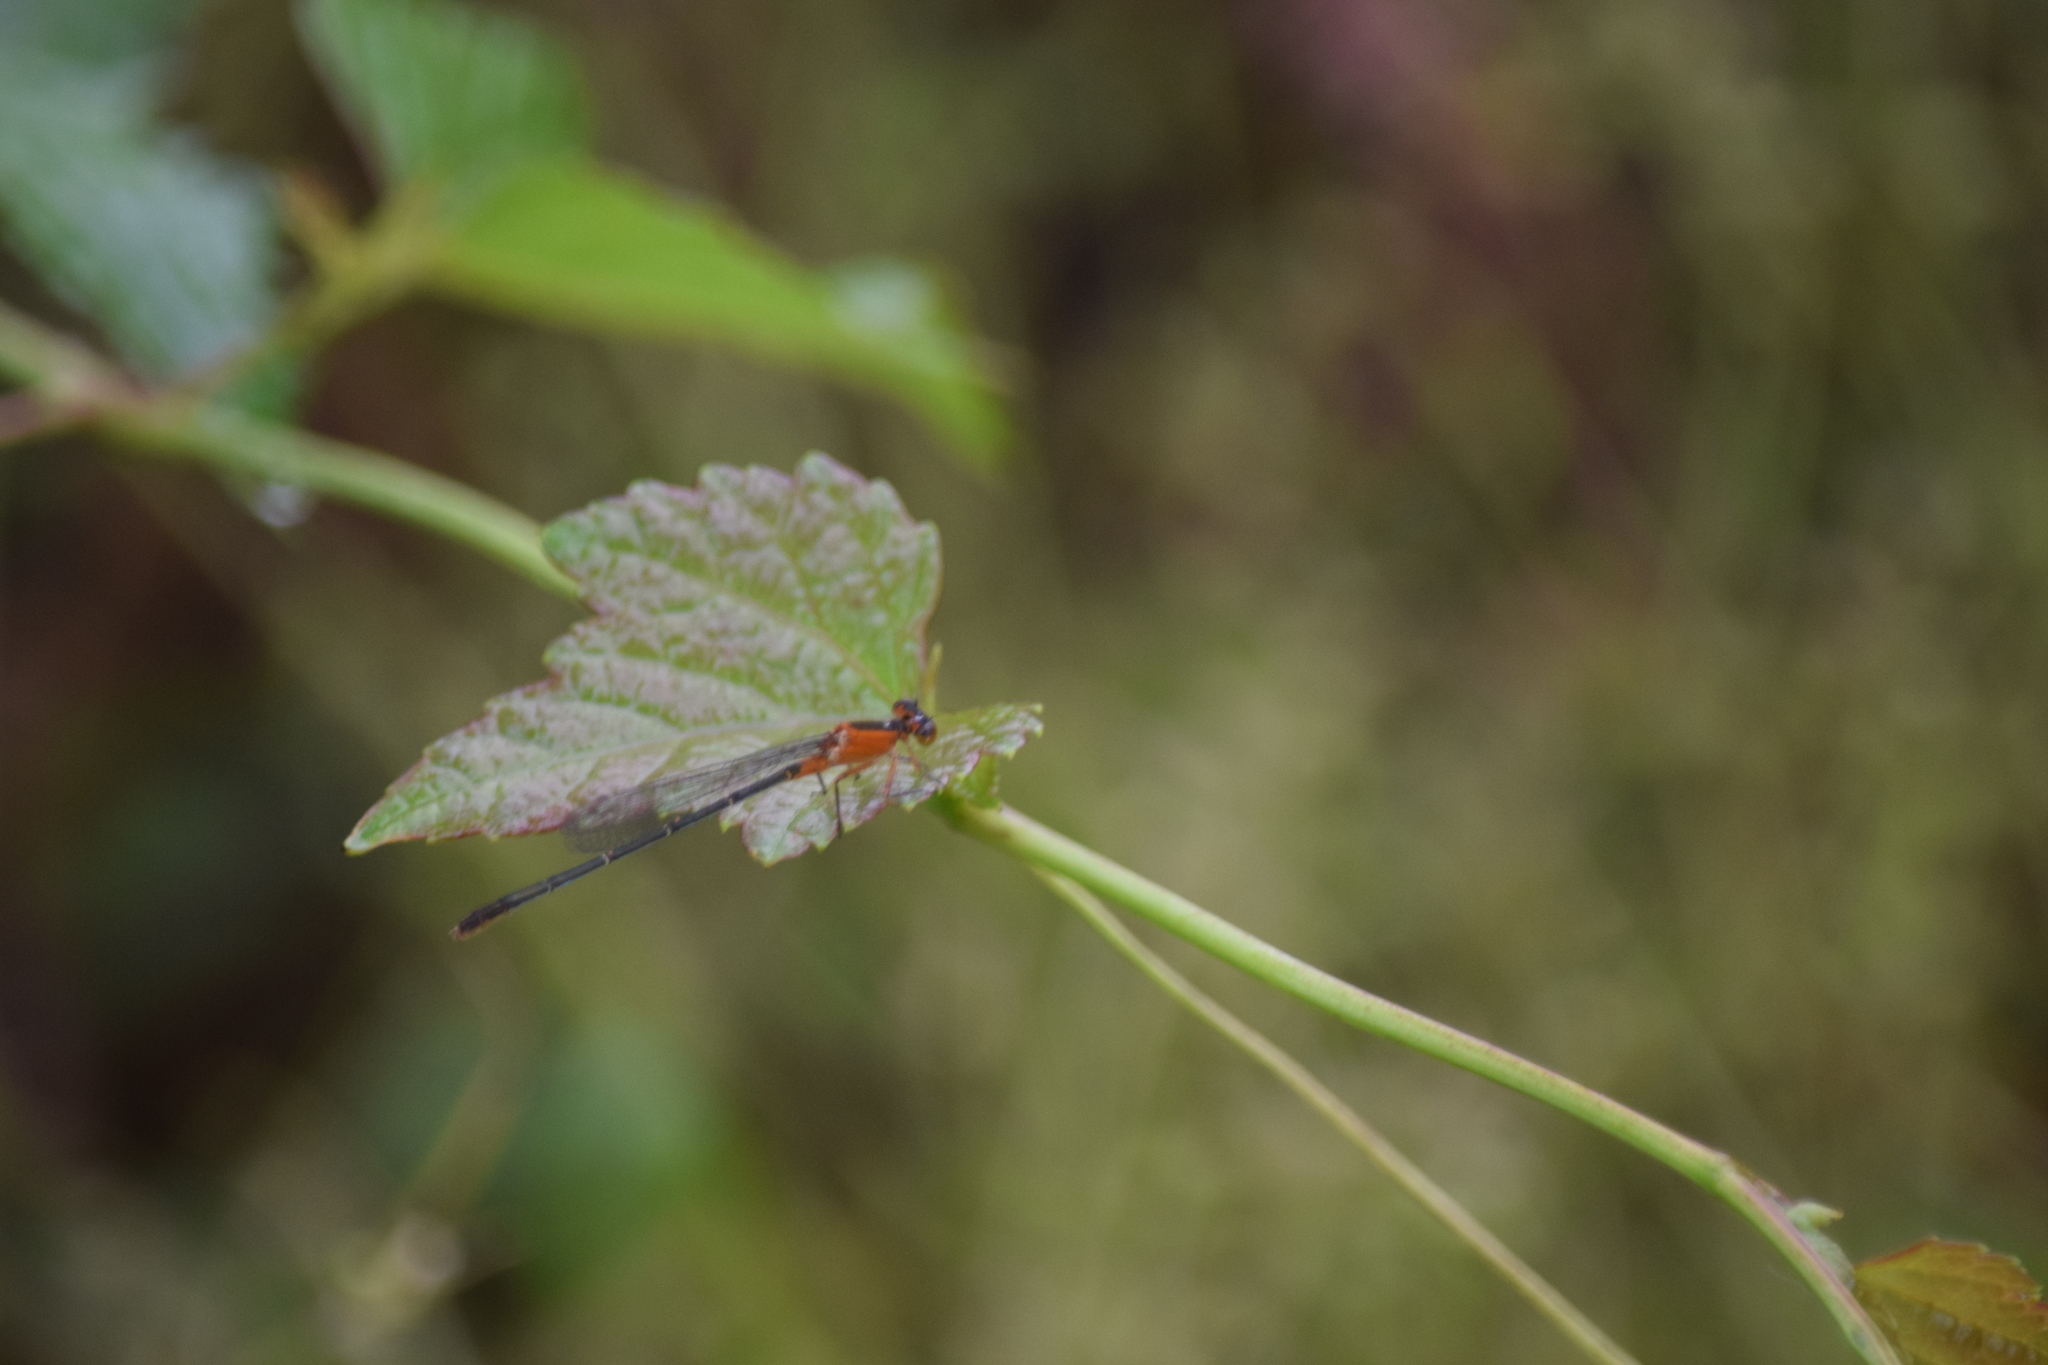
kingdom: Animalia
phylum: Arthropoda
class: Insecta
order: Odonata
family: Coenagrionidae
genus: Ischnura
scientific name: Ischnura ramburii
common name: Rambur's forktail
